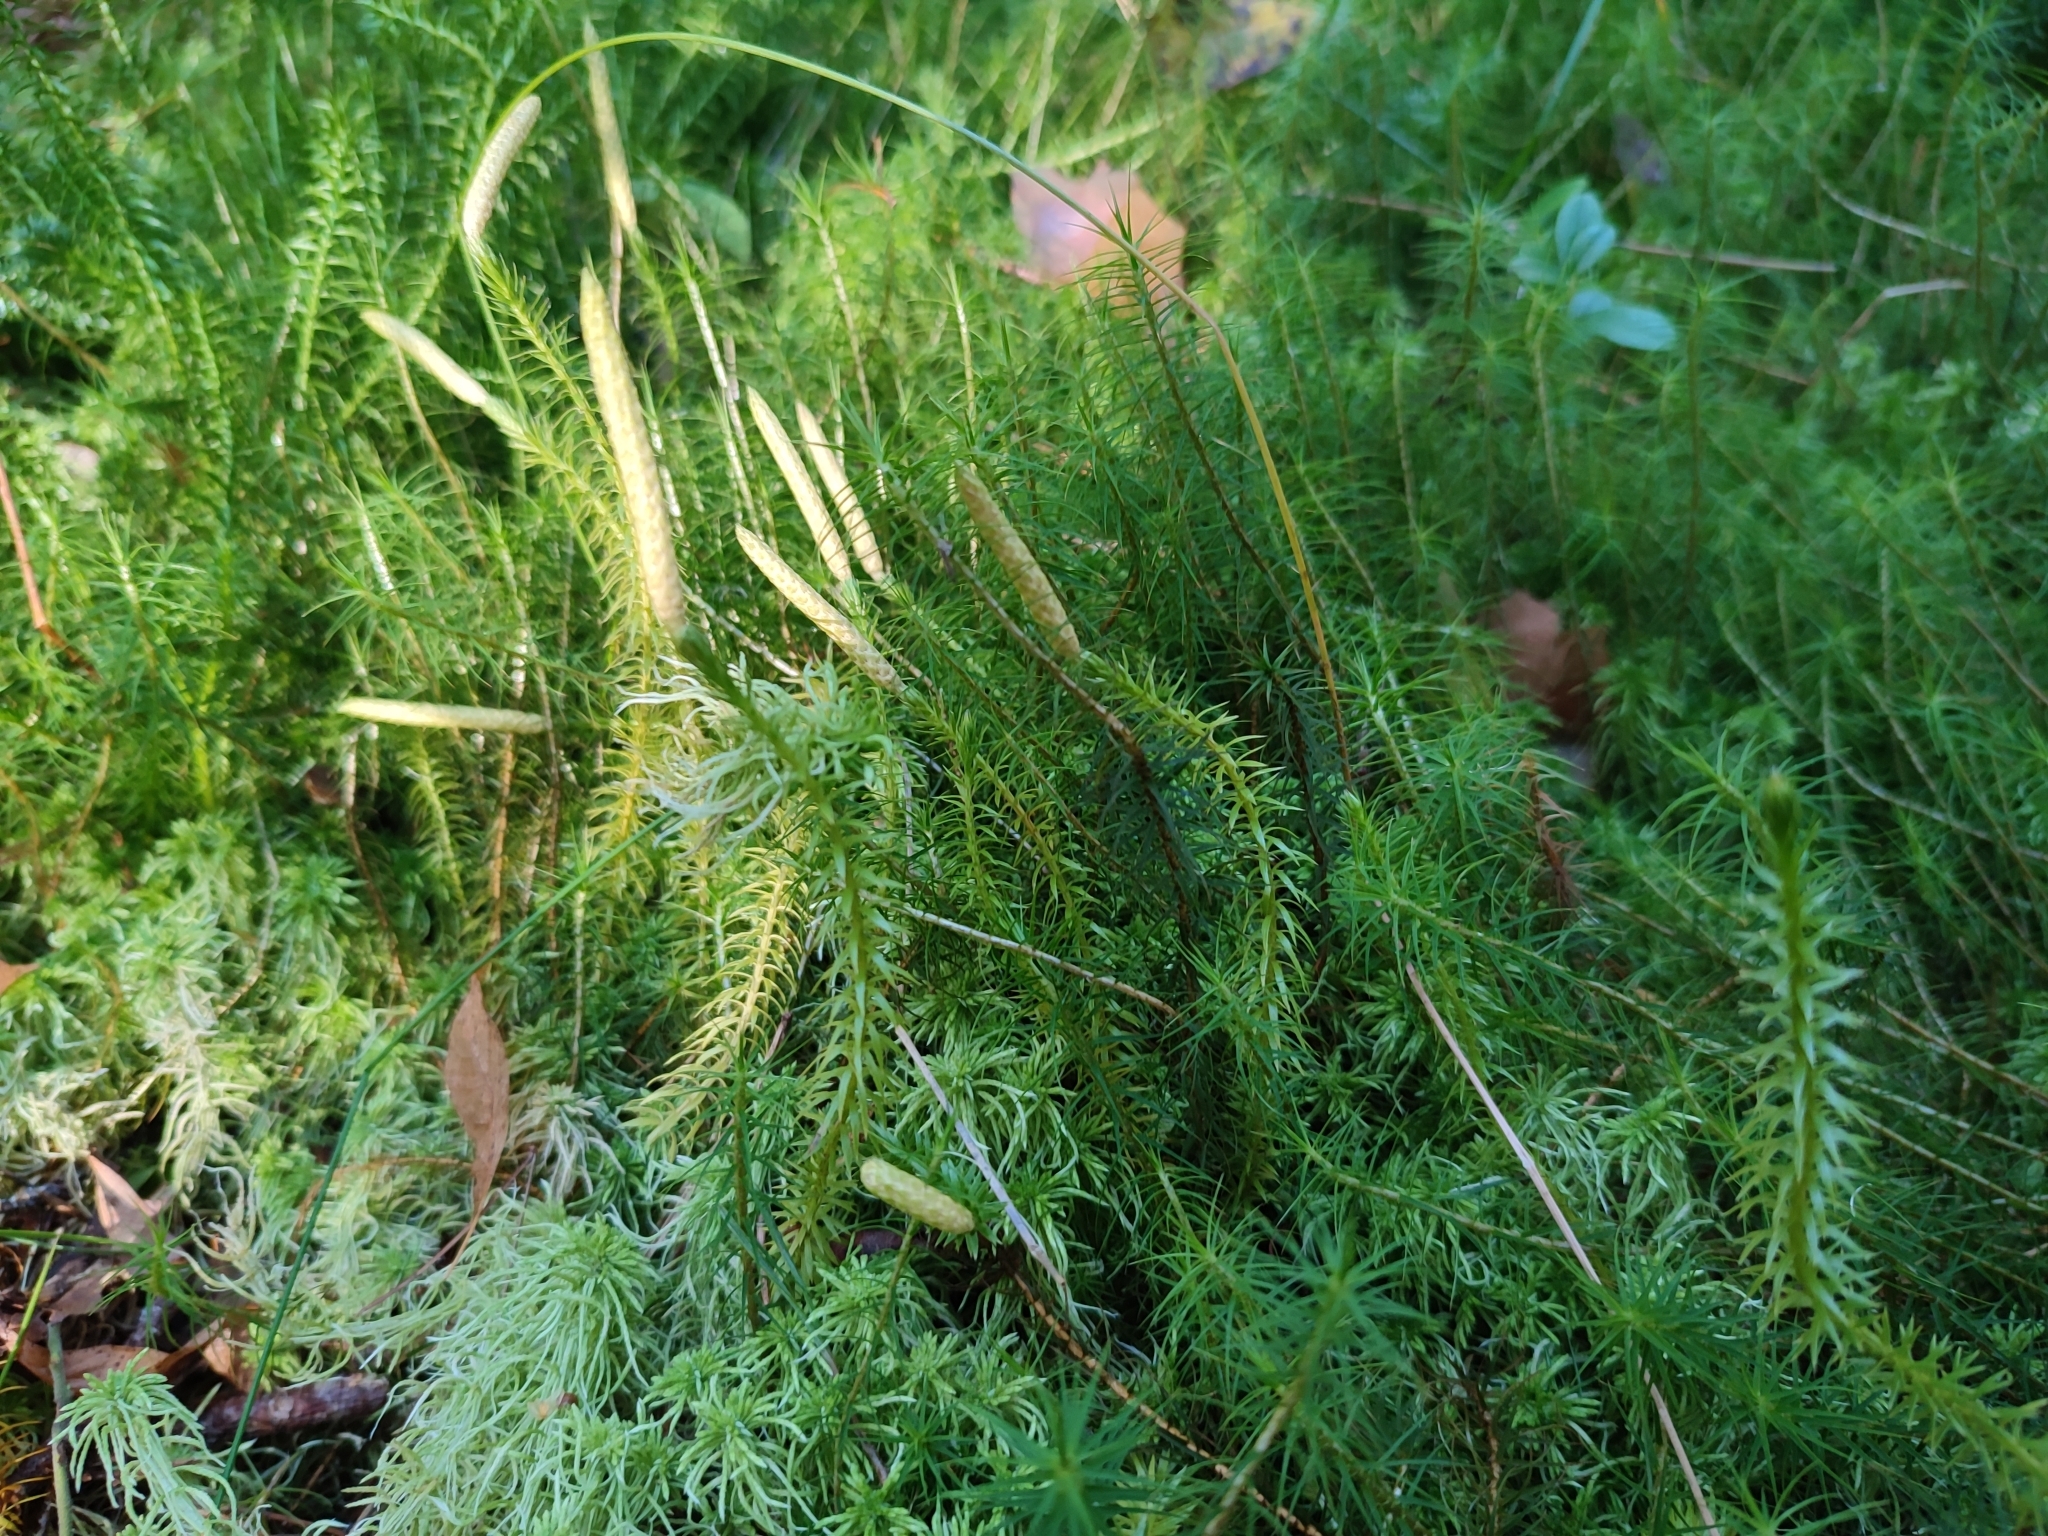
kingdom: Plantae
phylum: Tracheophyta
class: Lycopodiopsida
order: Lycopodiales
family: Lycopodiaceae
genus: Spinulum
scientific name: Spinulum annotinum
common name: Interrupted club-moss
